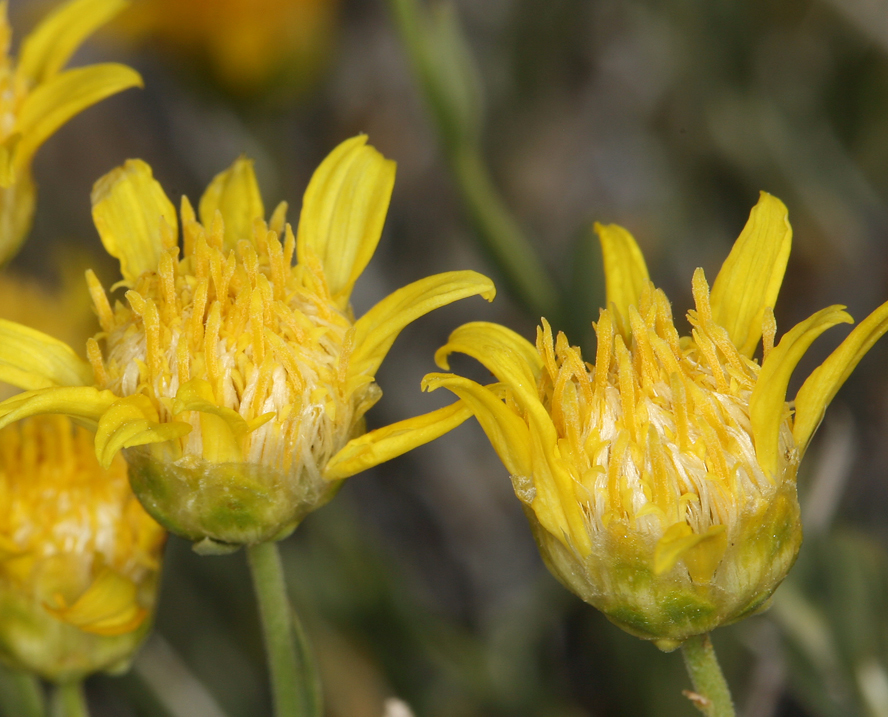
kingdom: Plantae
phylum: Tracheophyta
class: Magnoliopsida
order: Asterales
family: Asteraceae
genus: Acamptopappus
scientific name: Acamptopappus shockleyi
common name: Shockley's goldenhead
